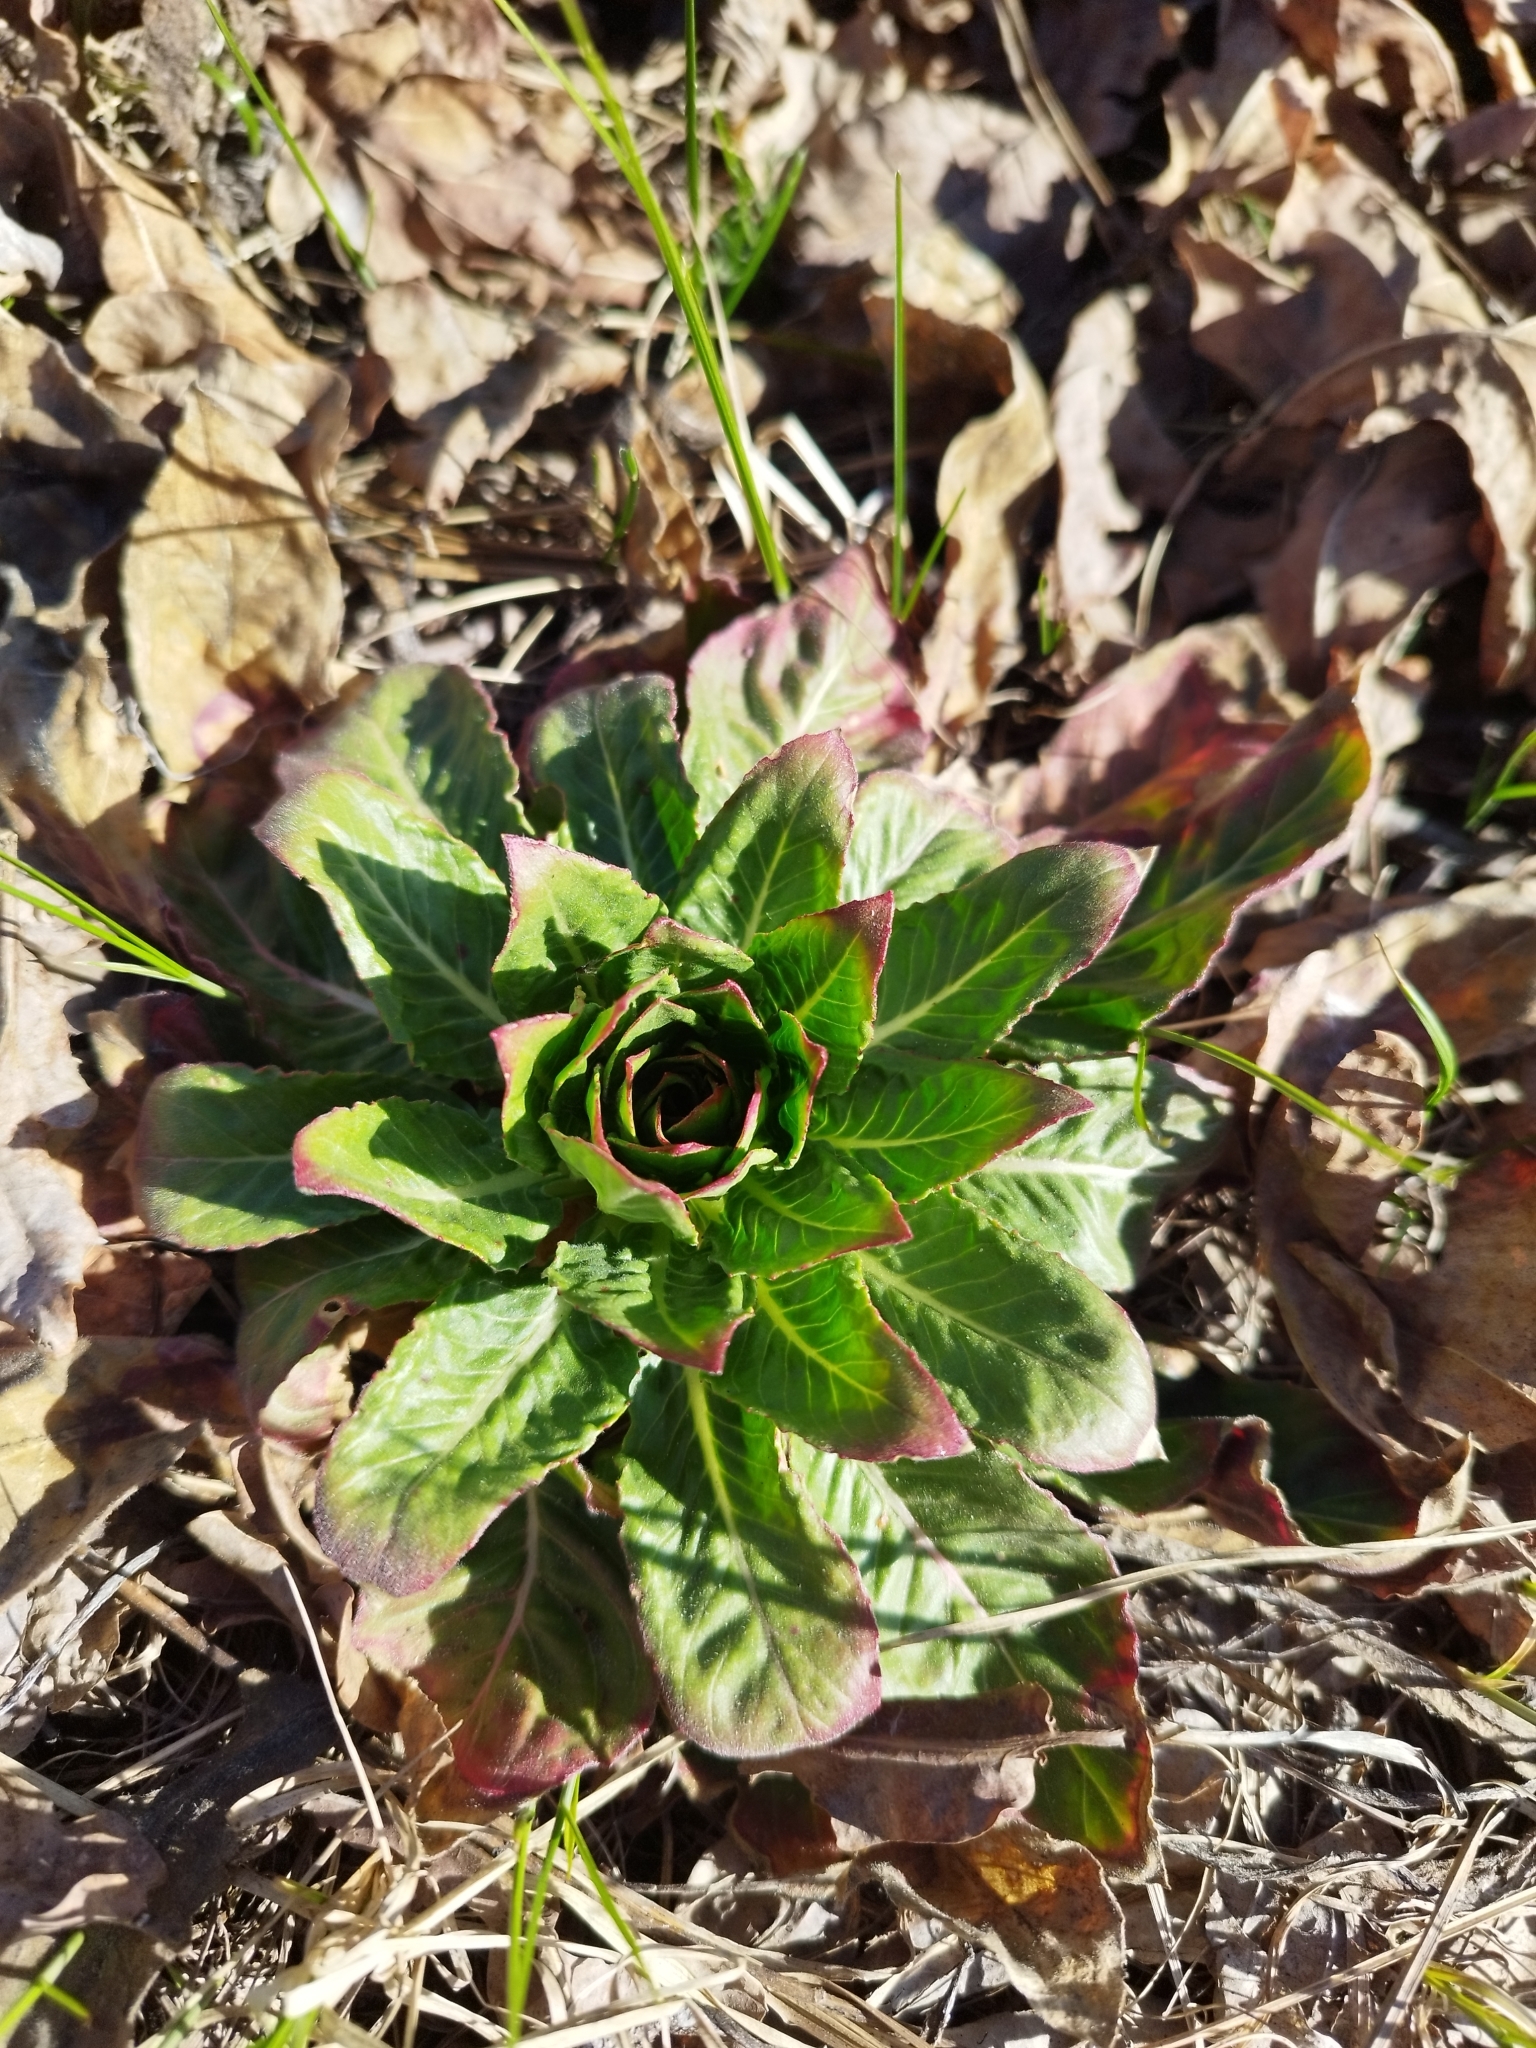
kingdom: Plantae
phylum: Tracheophyta
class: Magnoliopsida
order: Myrtales
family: Onagraceae
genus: Oenothera
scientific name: Oenothera
